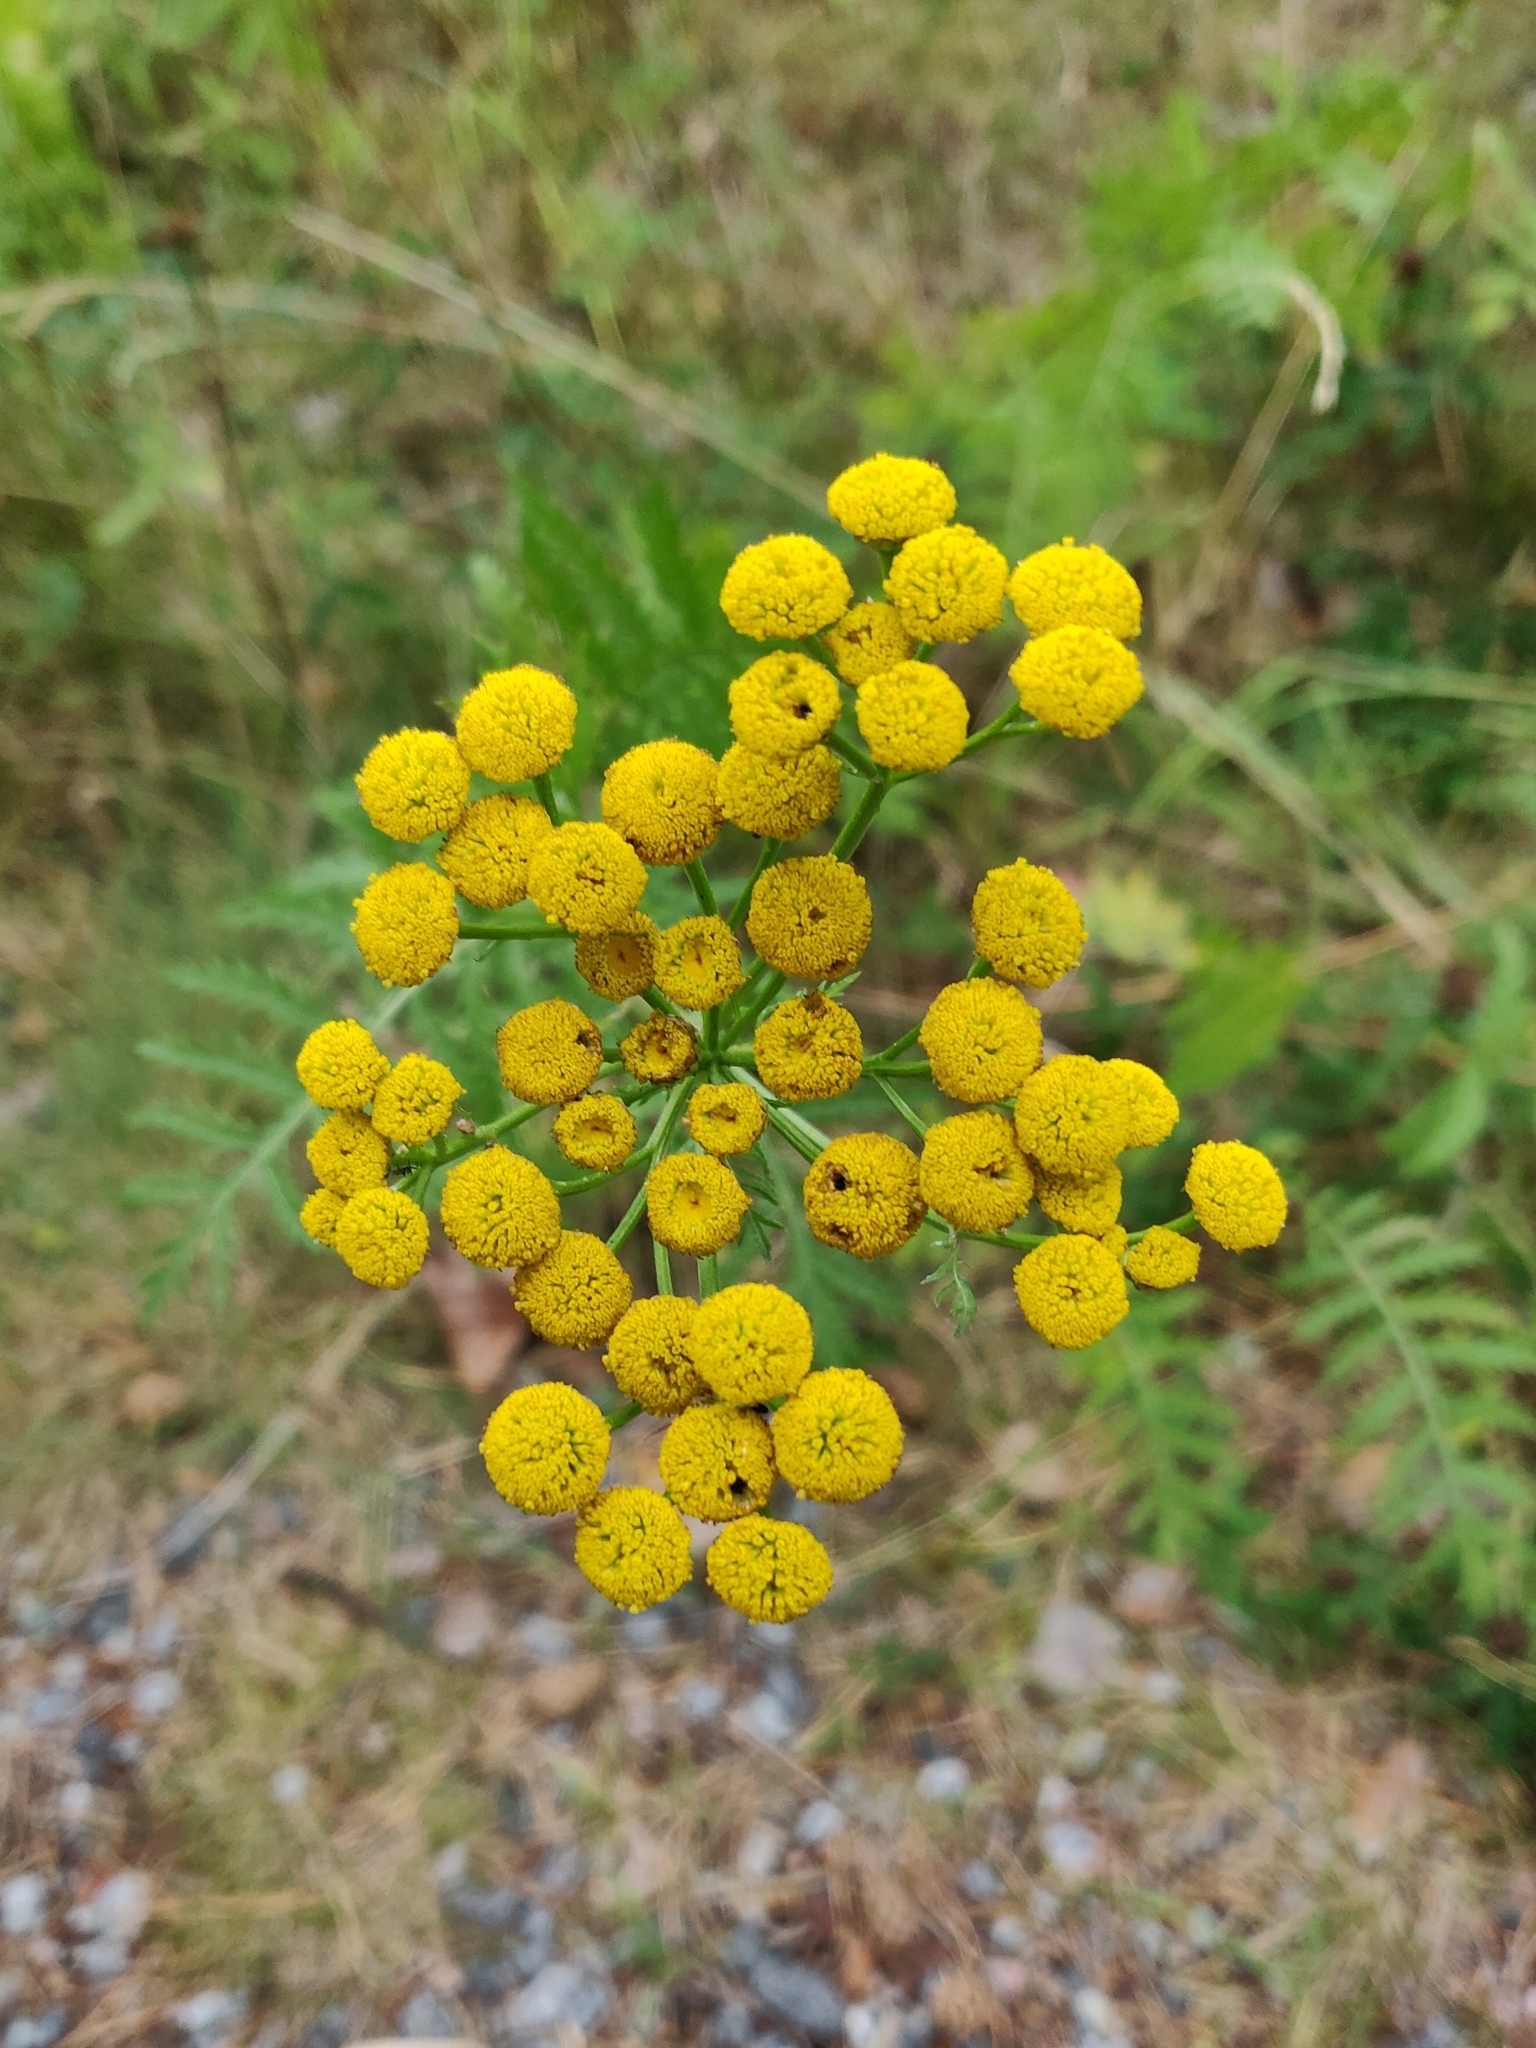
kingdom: Plantae
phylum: Tracheophyta
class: Magnoliopsida
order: Asterales
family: Asteraceae
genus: Tanacetum
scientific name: Tanacetum vulgare
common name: Common tansy
